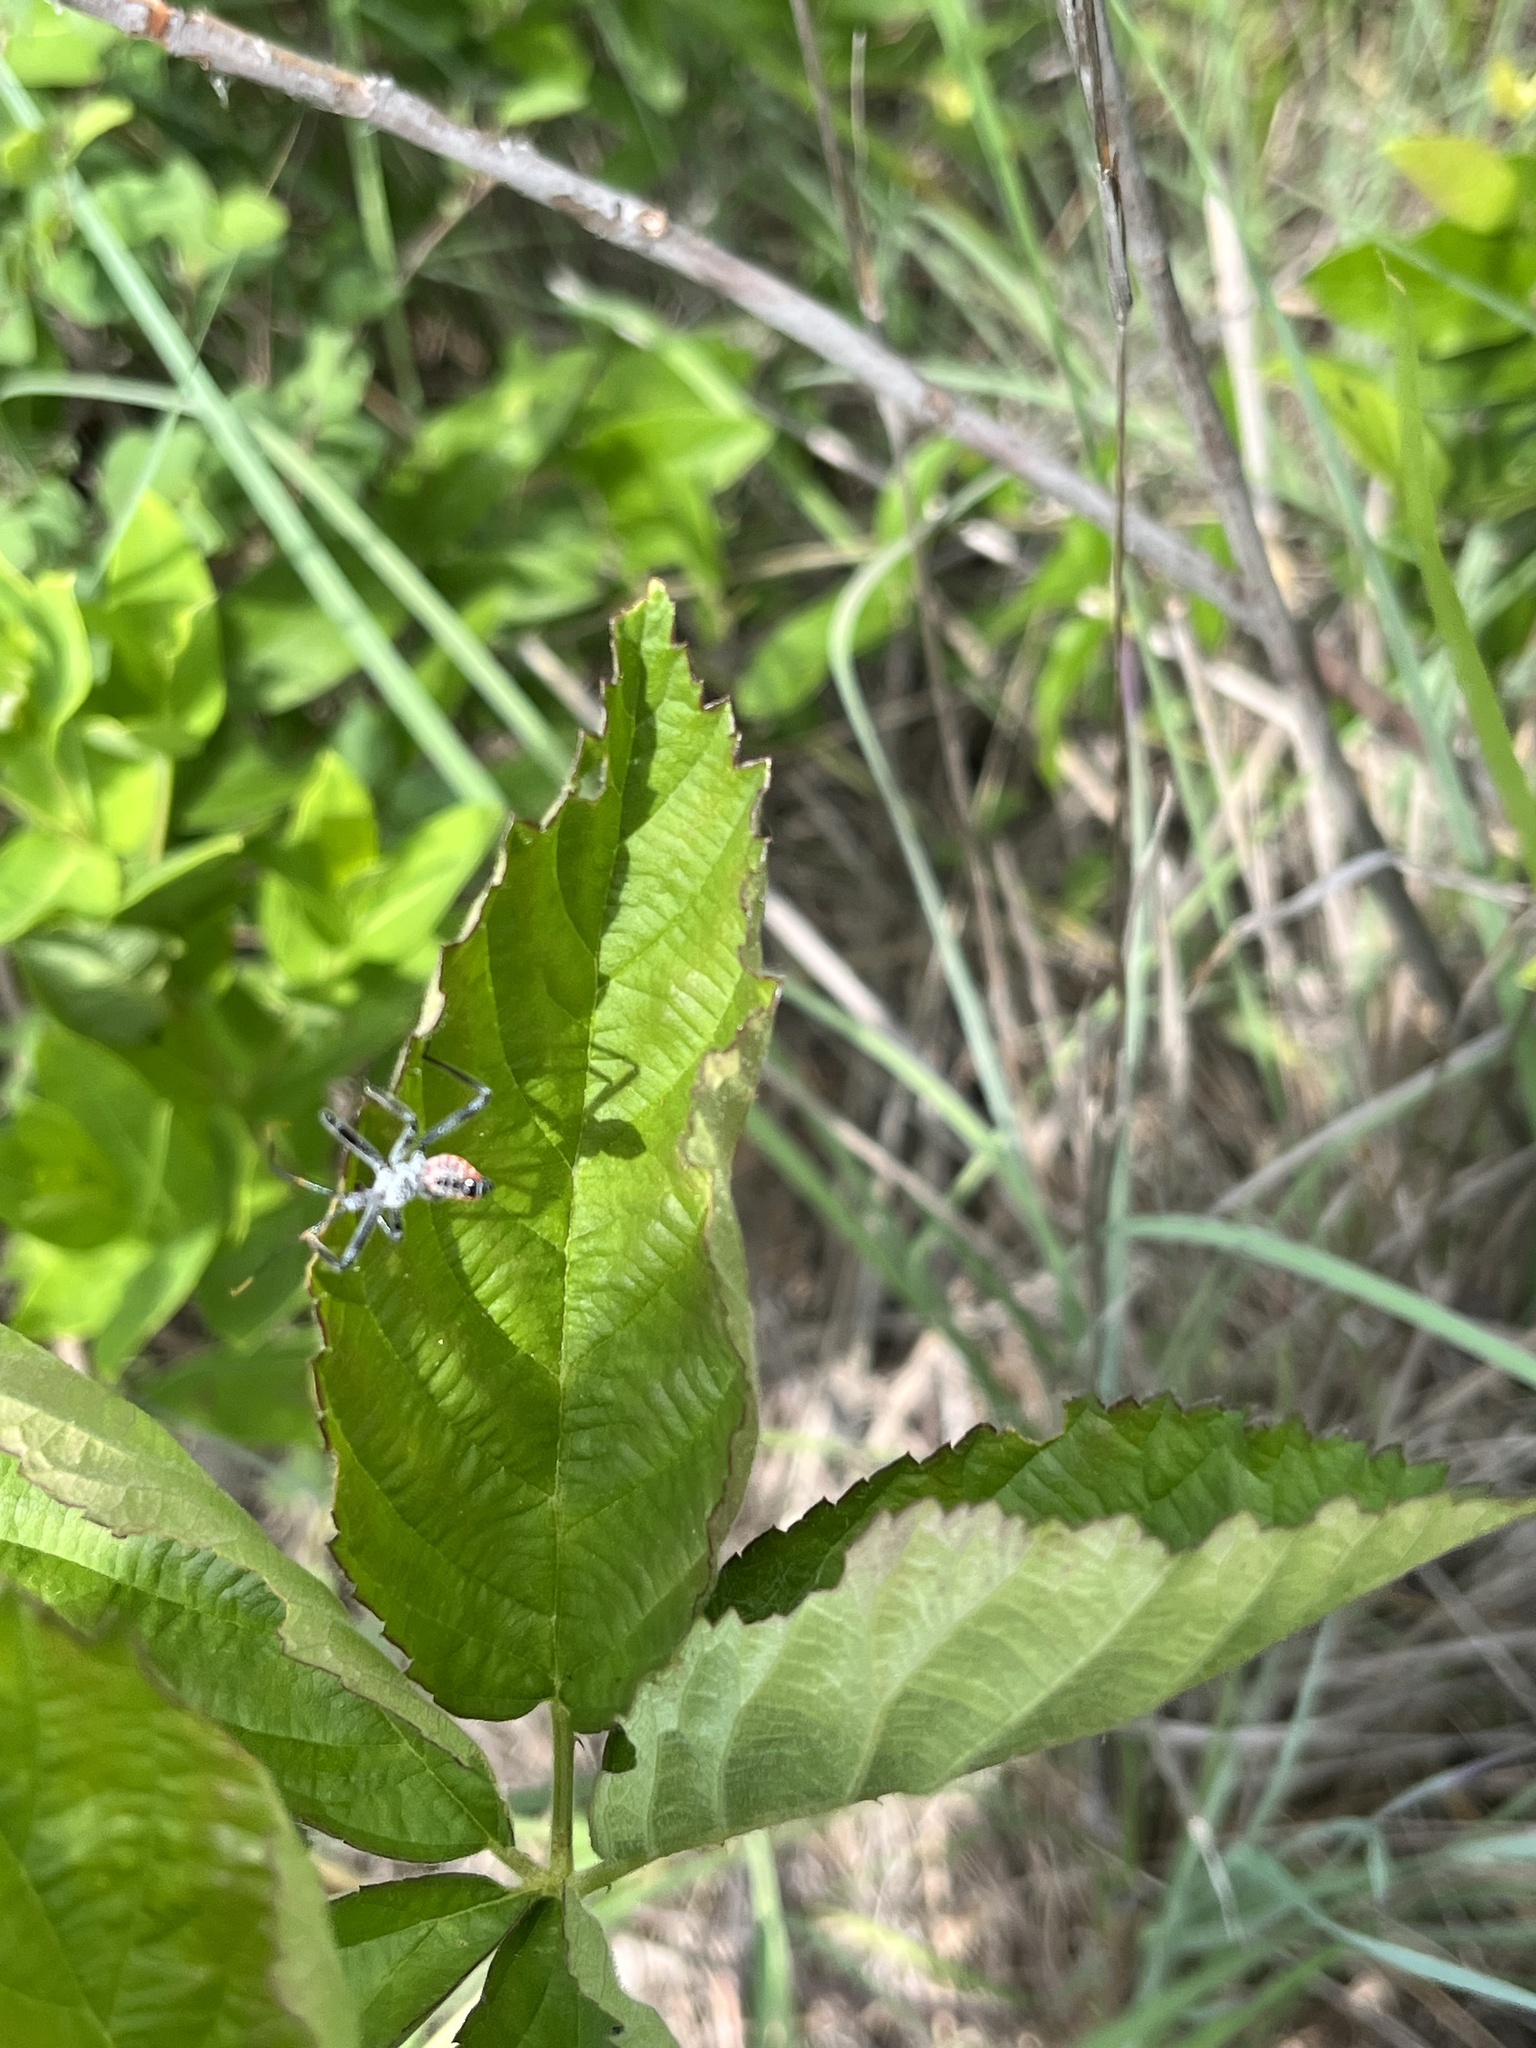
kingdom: Animalia
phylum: Arthropoda
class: Insecta
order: Hemiptera
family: Reduviidae
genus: Arilus
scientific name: Arilus cristatus
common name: North american wheel bug
